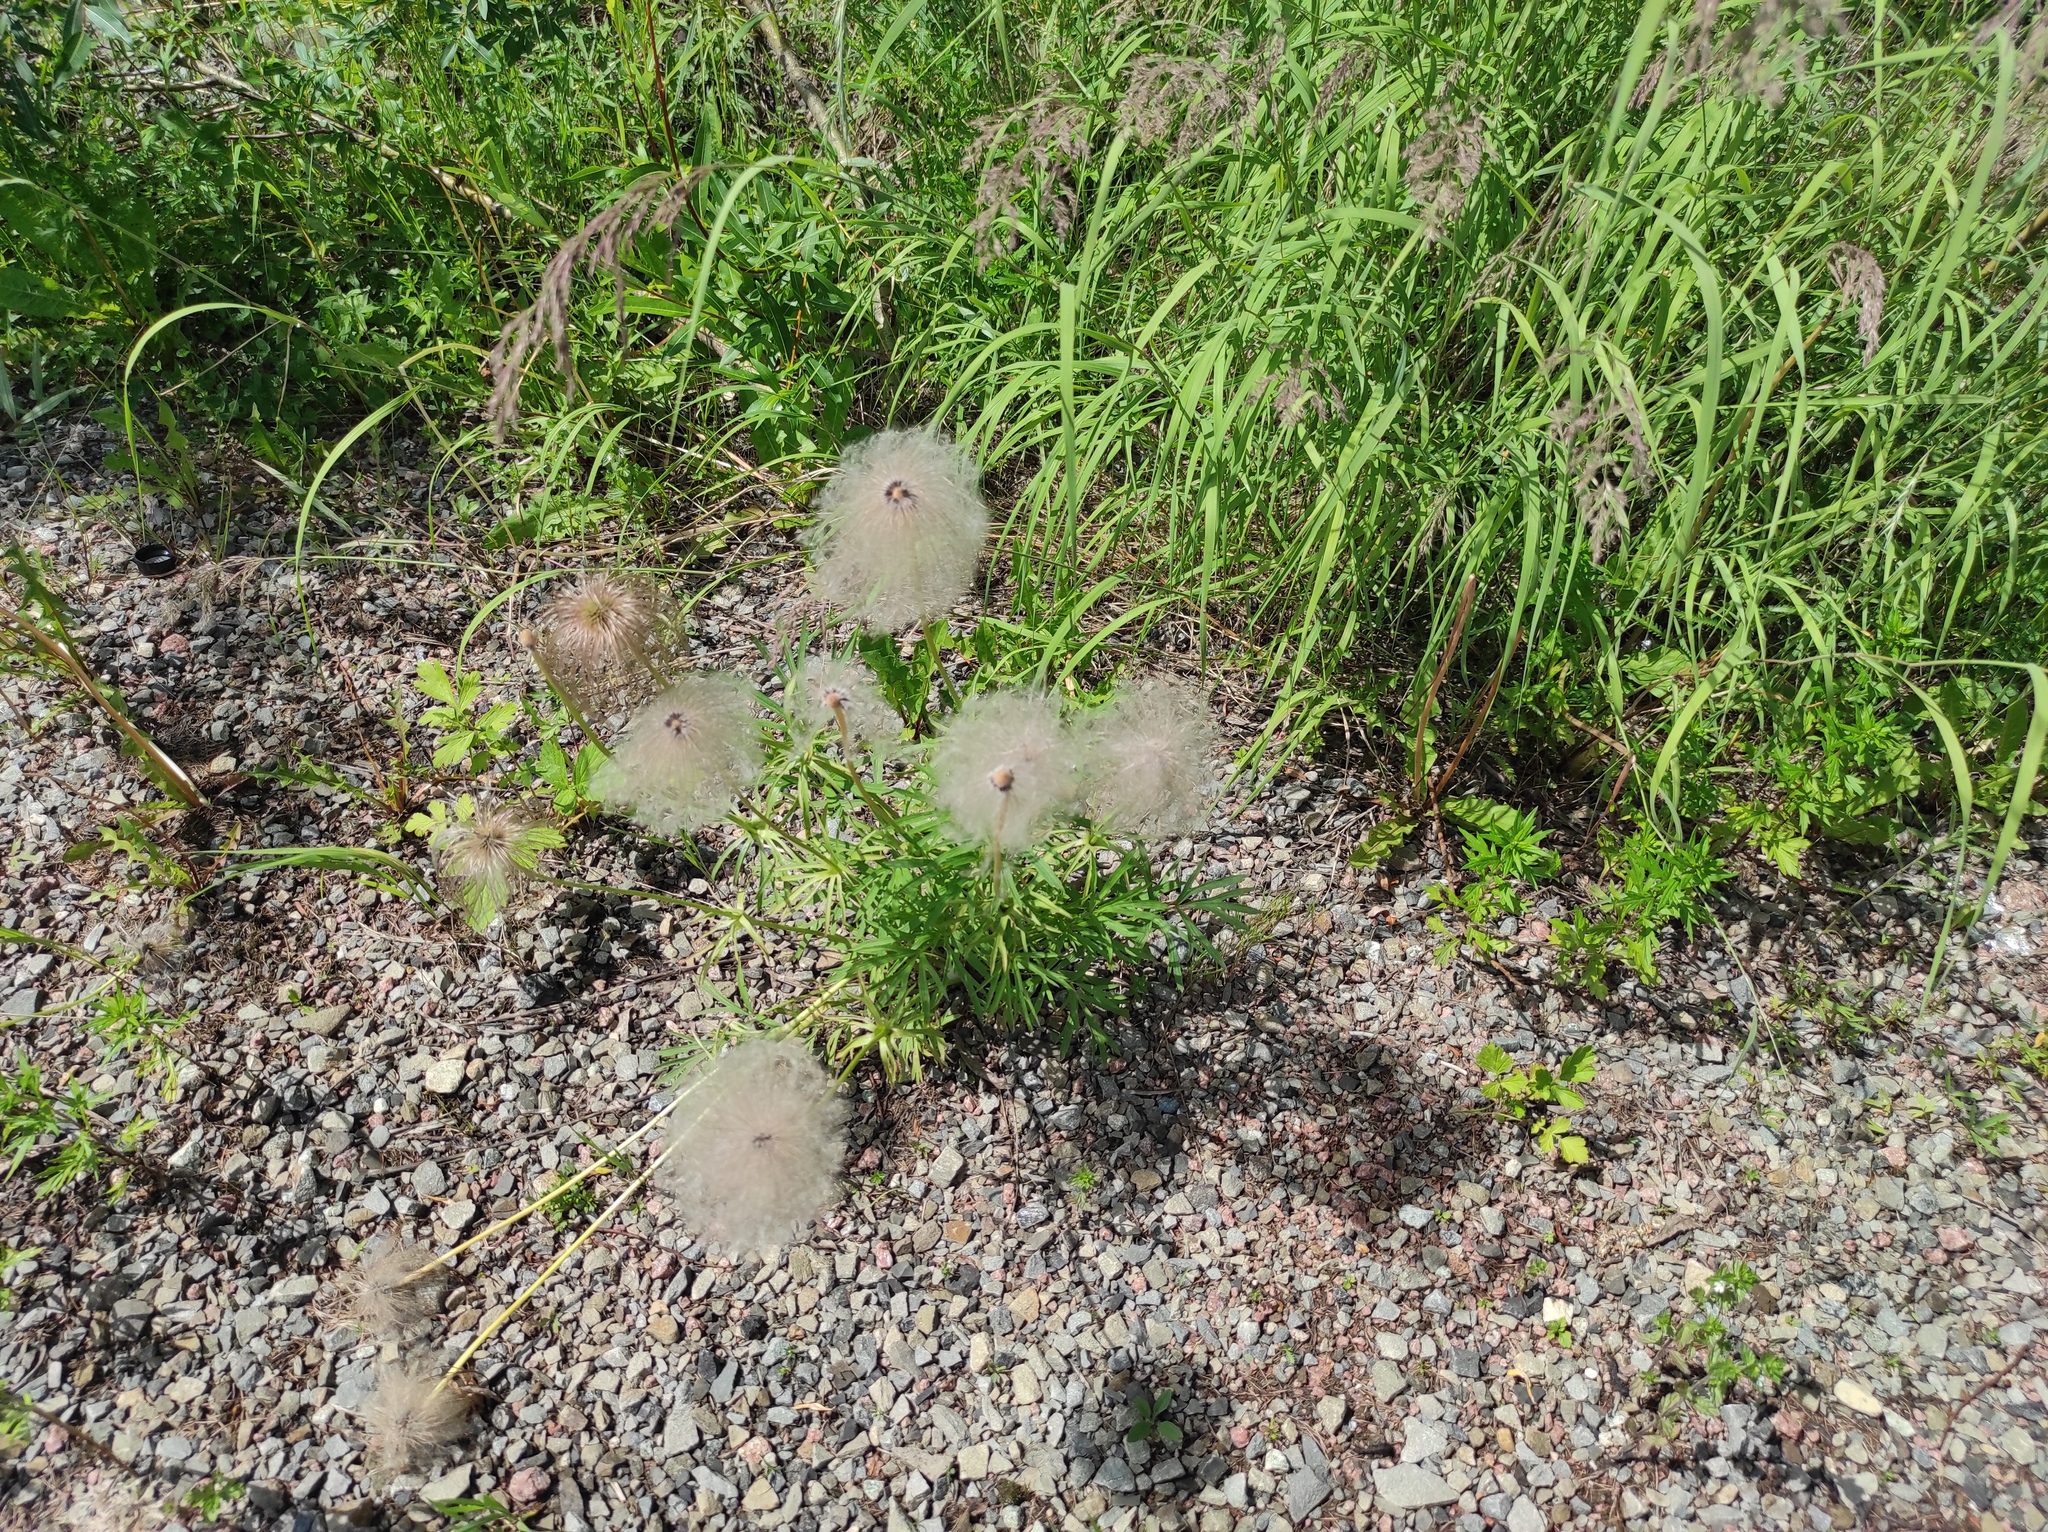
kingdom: Plantae
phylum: Tracheophyta
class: Magnoliopsida
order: Ranunculales
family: Ranunculaceae
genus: Pulsatilla
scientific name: Pulsatilla dahurica
